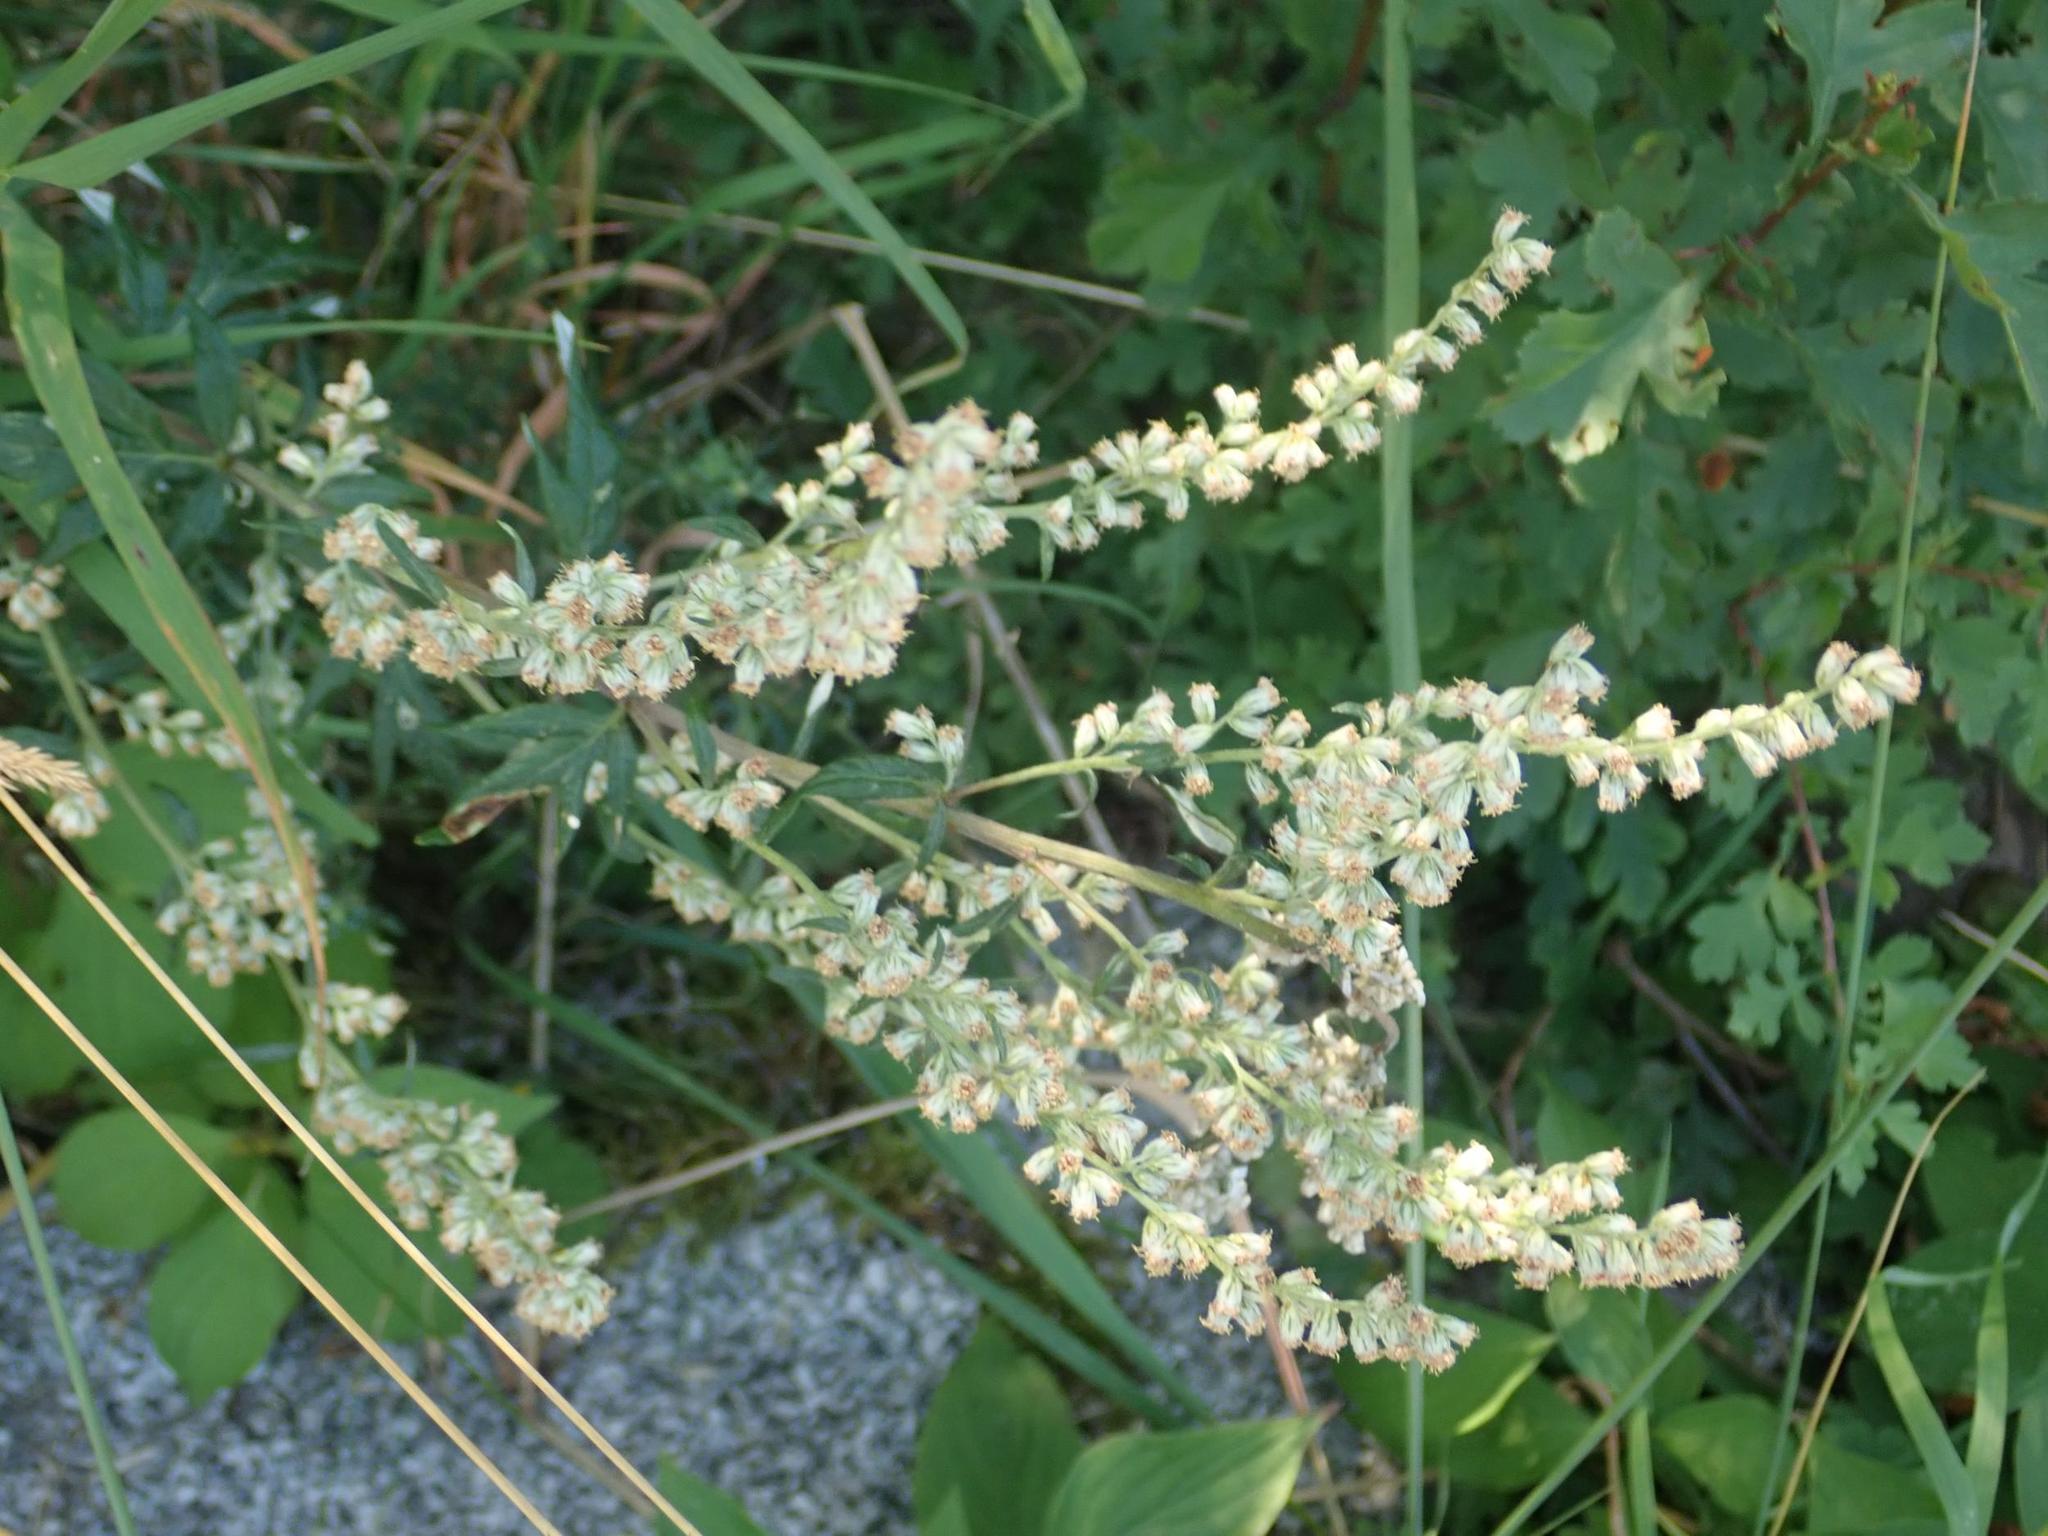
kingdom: Plantae
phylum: Tracheophyta
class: Magnoliopsida
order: Asterales
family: Asteraceae
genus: Artemisia
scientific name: Artemisia vulgaris
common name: Mugwort
